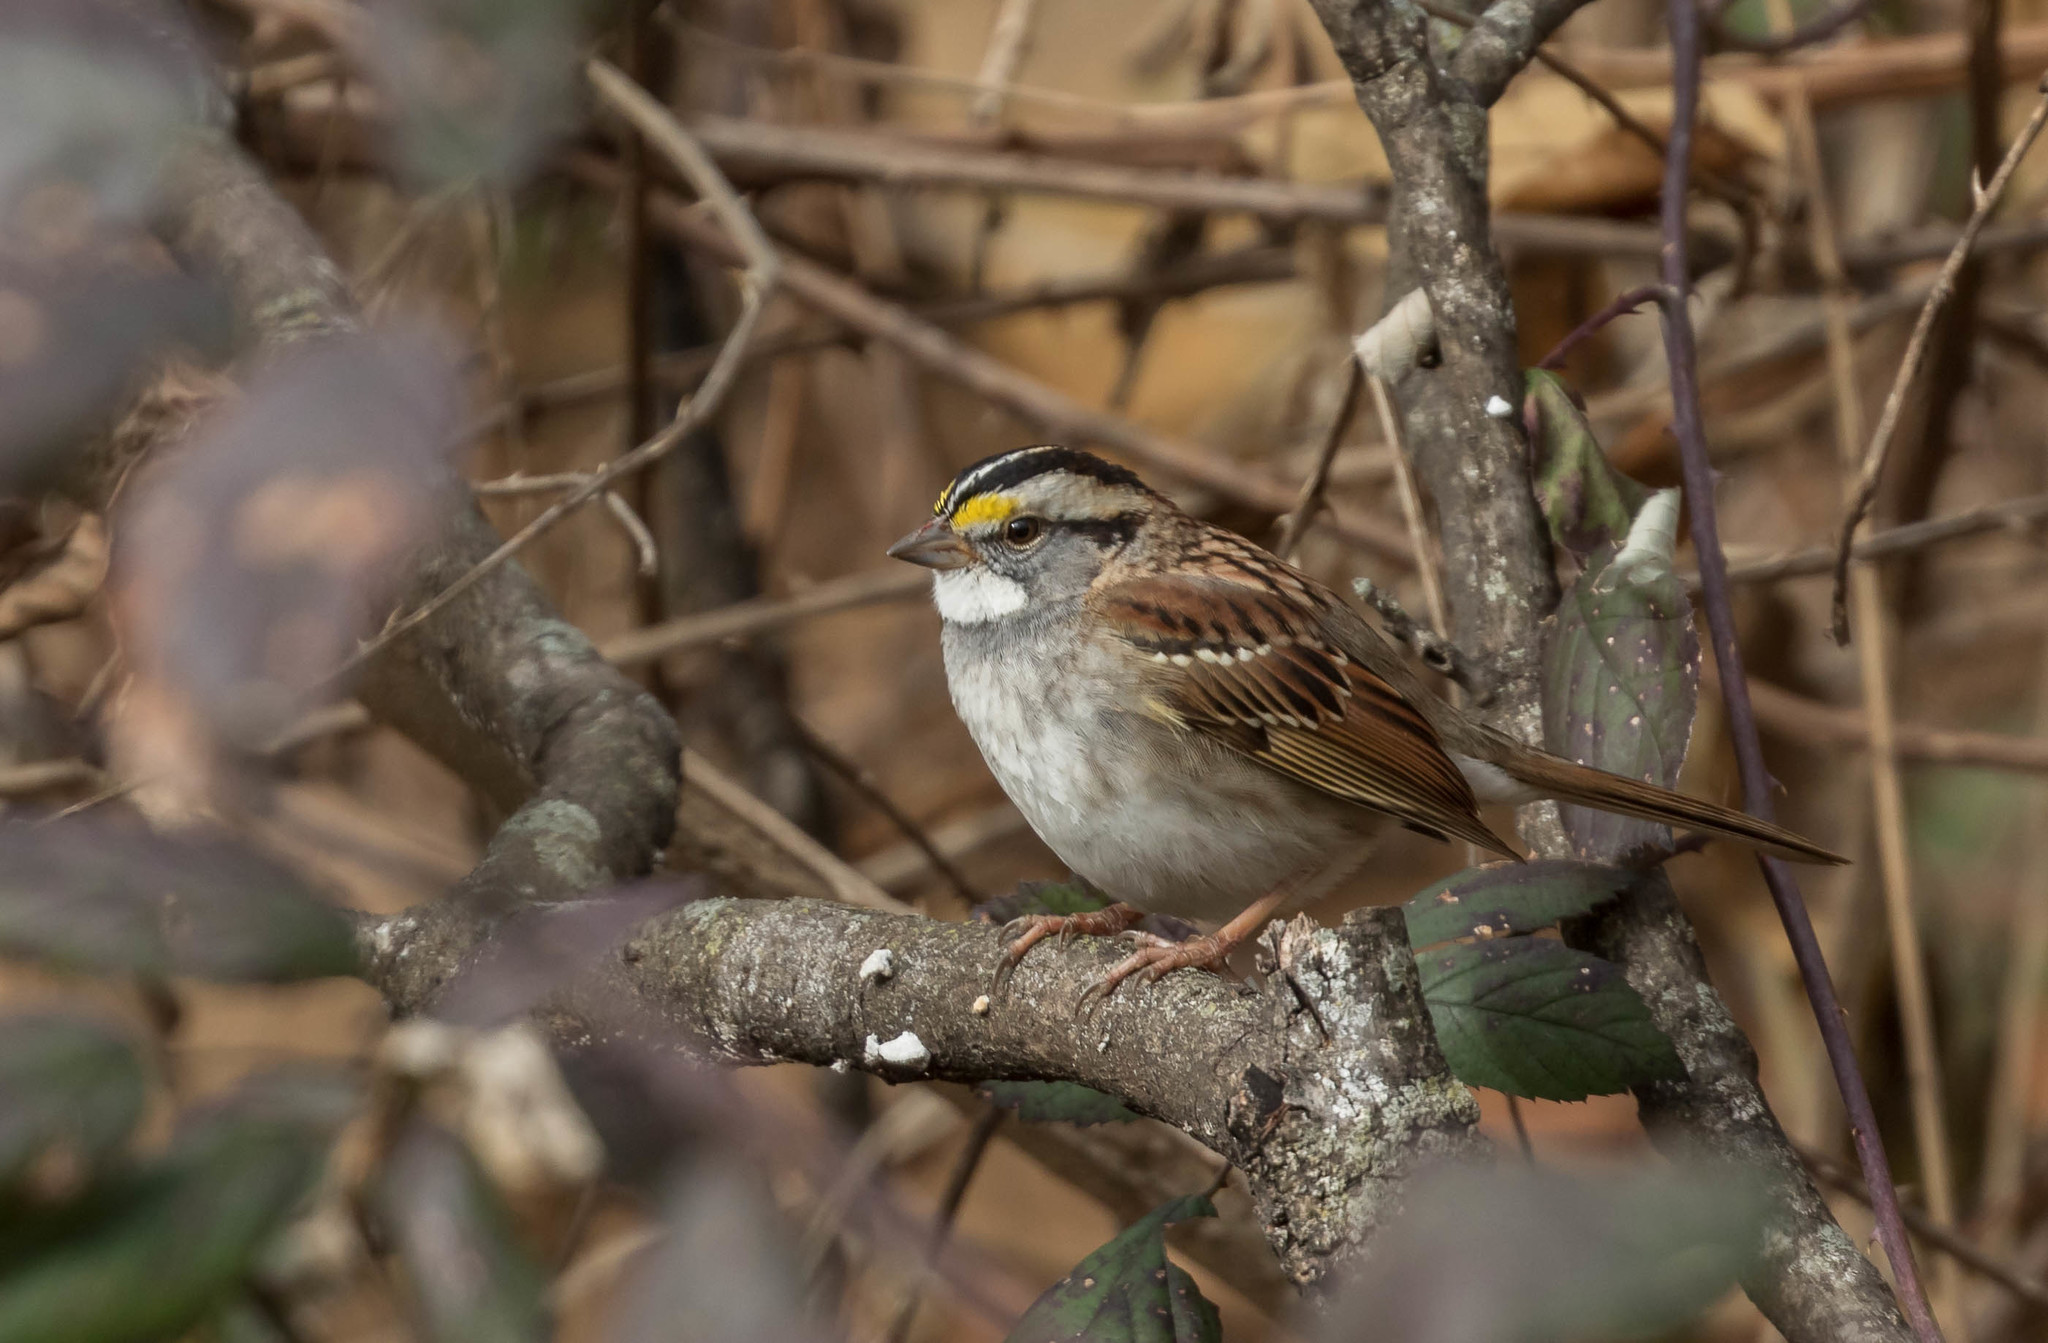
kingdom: Animalia
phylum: Chordata
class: Aves
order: Passeriformes
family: Passerellidae
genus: Zonotrichia
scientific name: Zonotrichia albicollis
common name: White-throated sparrow
